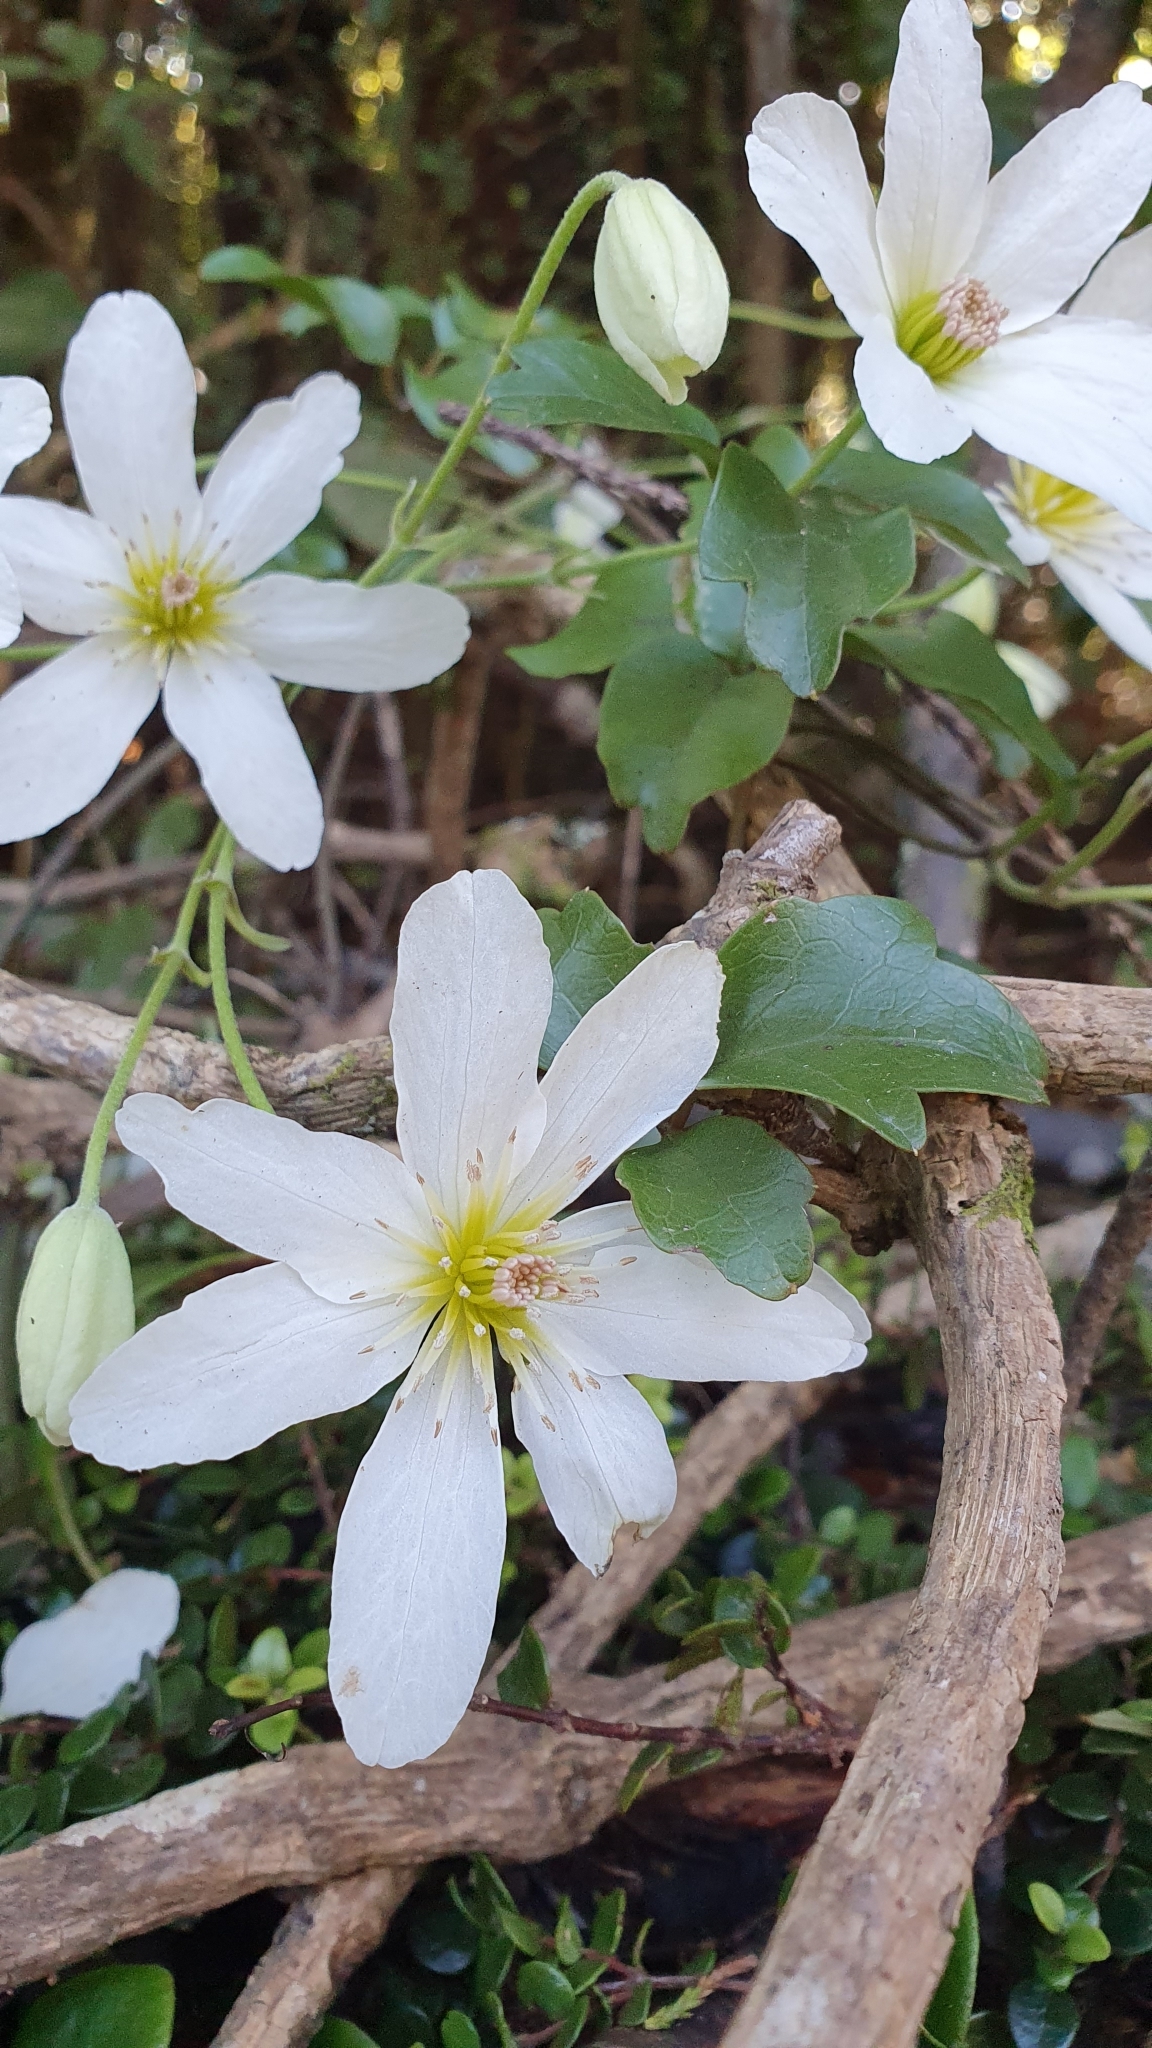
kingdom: Plantae
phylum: Tracheophyta
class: Magnoliopsida
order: Ranunculales
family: Ranunculaceae
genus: Clematis
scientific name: Clematis paniculata
